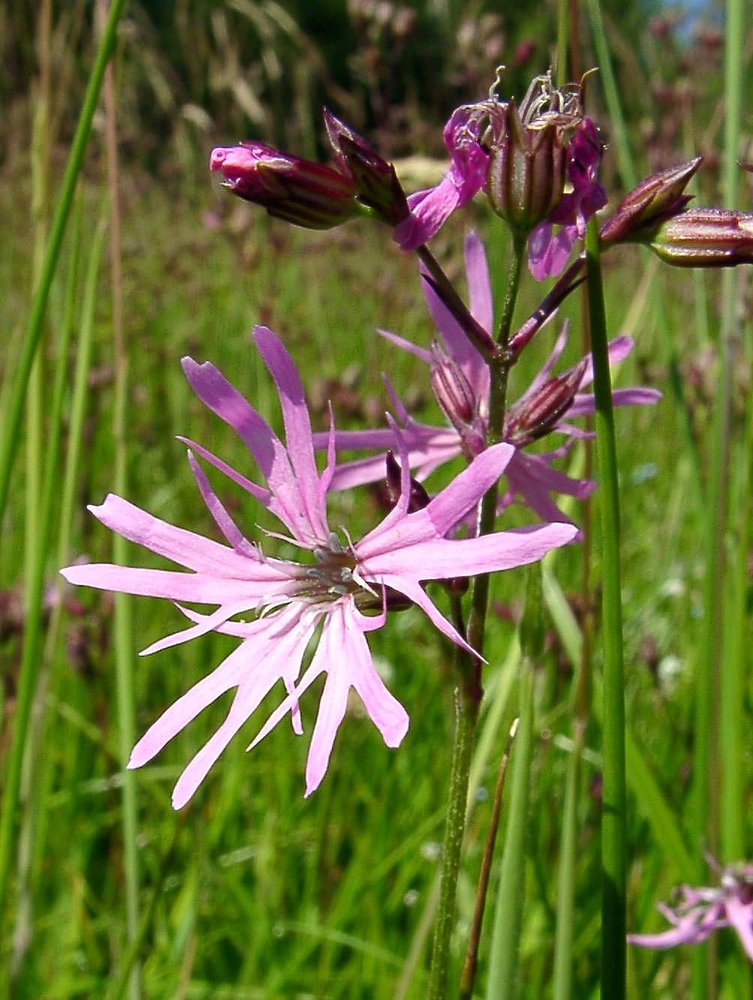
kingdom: Plantae
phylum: Tracheophyta
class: Magnoliopsida
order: Caryophyllales
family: Caryophyllaceae
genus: Silene
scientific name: Silene flos-cuculi
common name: Ragged-robin
